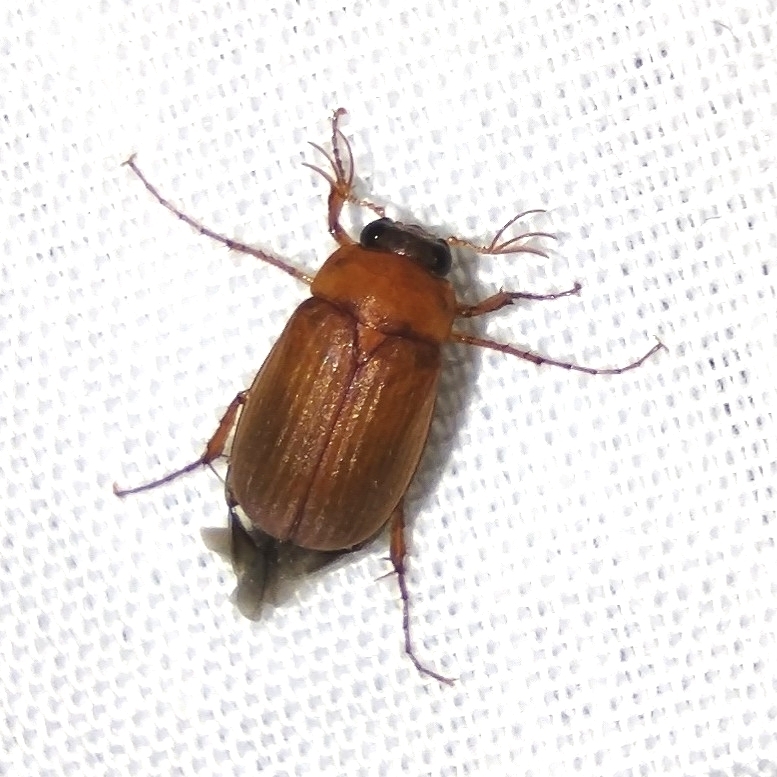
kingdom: Animalia
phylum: Arthropoda
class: Insecta
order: Coleoptera
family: Scarabaeidae
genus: Serica
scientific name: Serica brunnea
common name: Brown chafer
